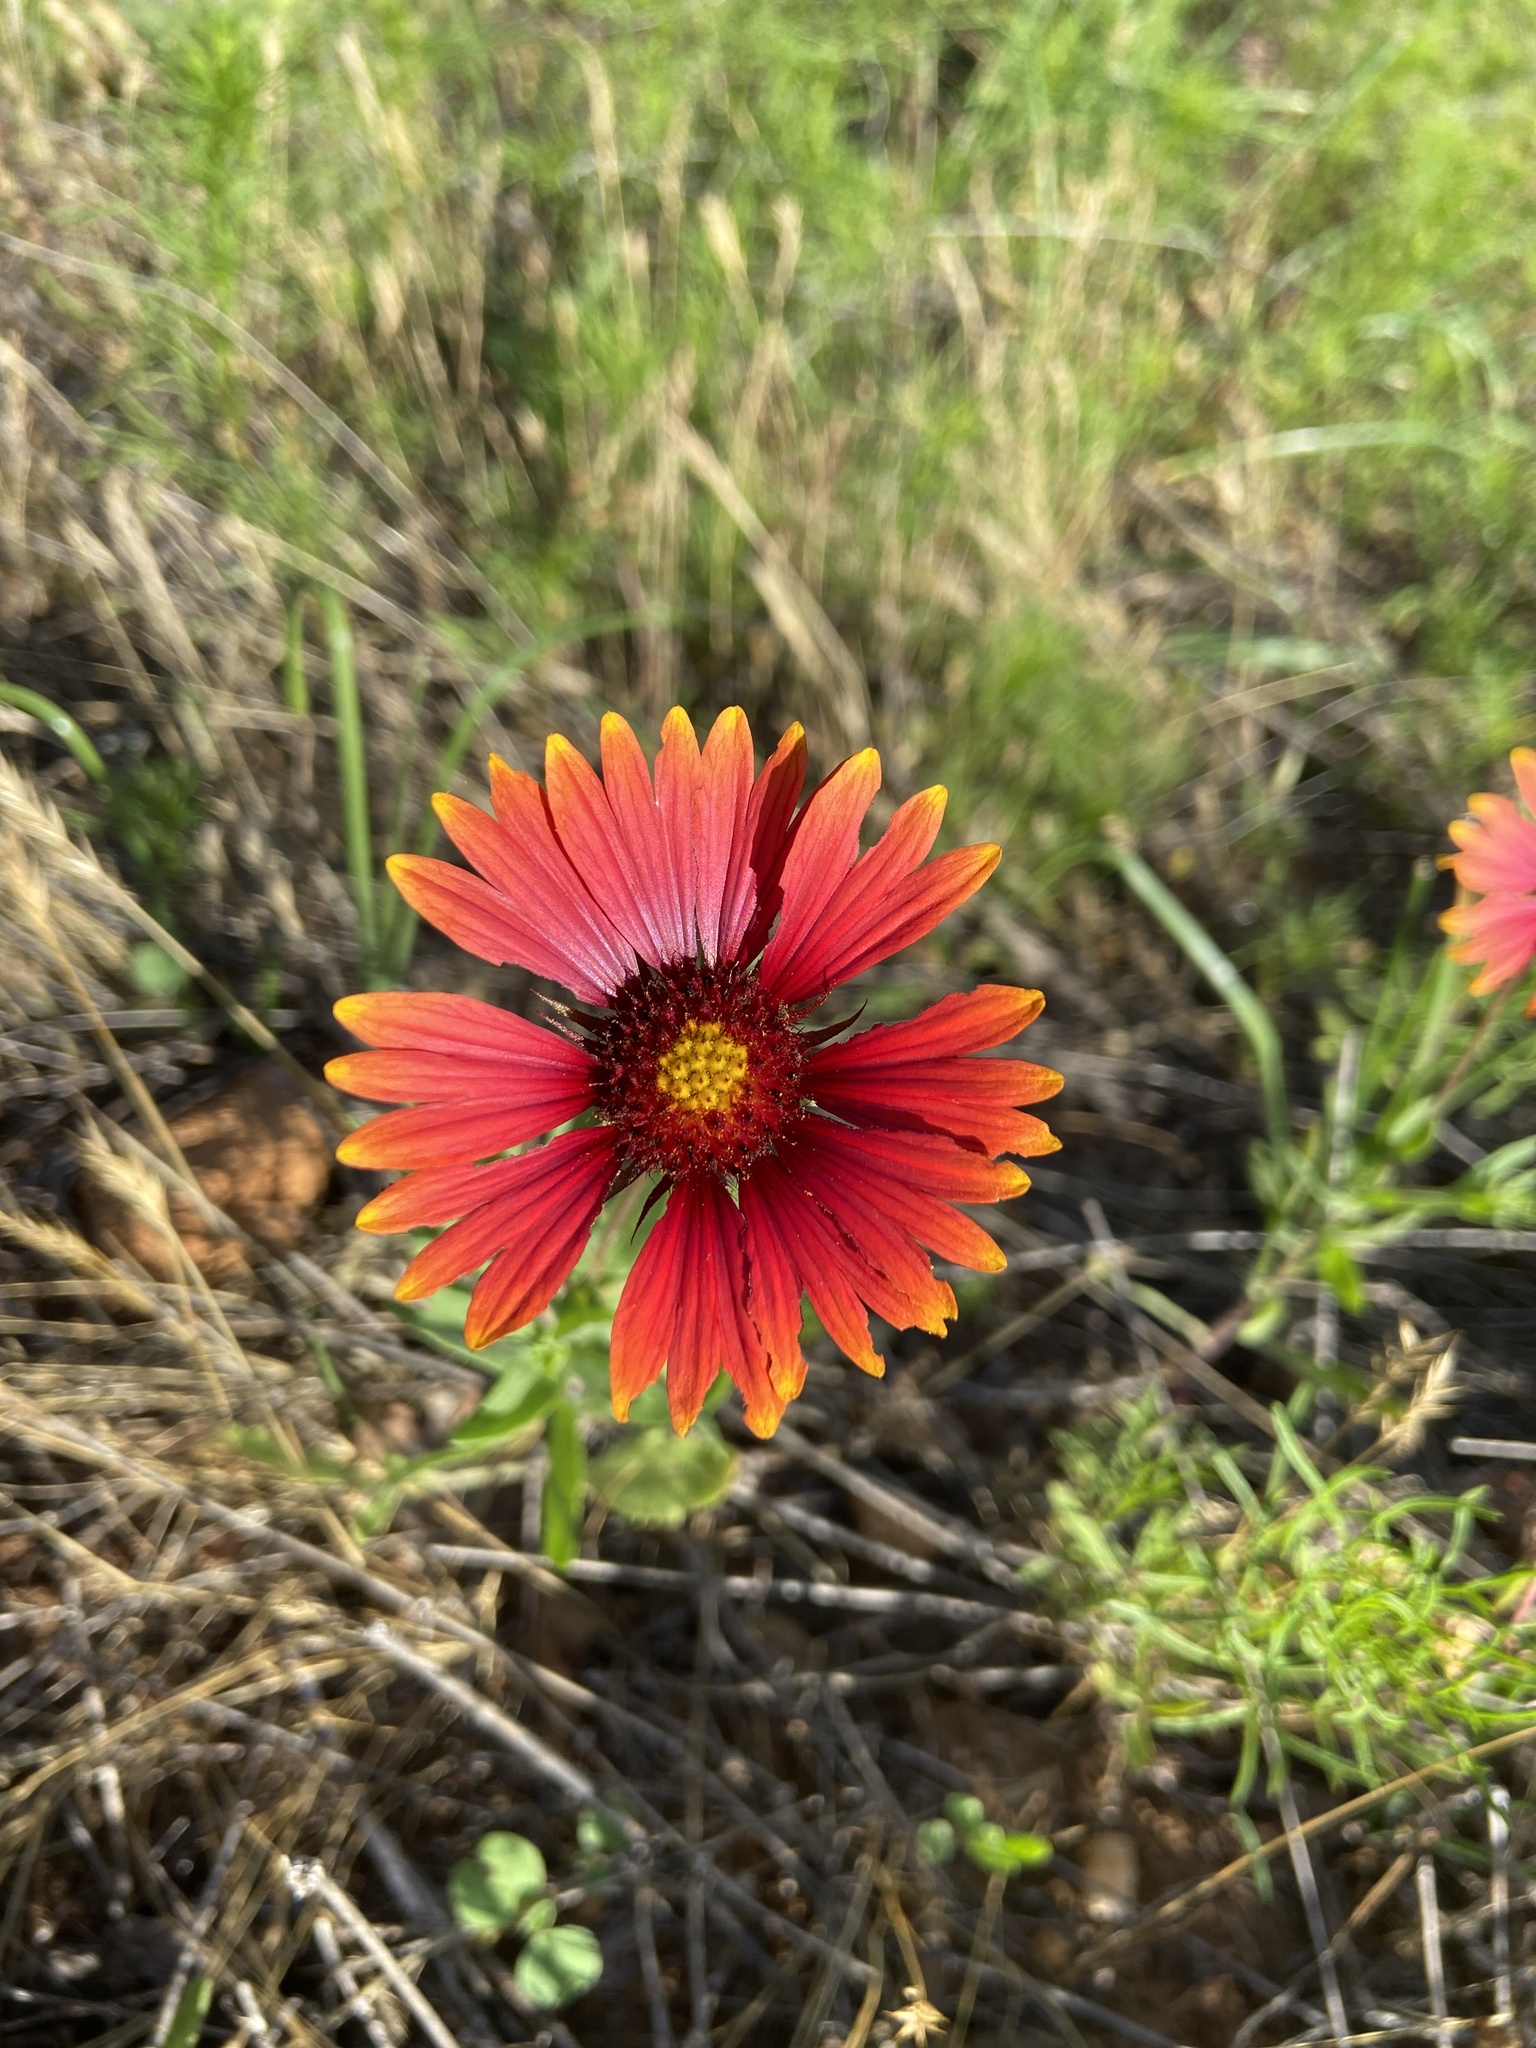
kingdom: Plantae
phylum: Tracheophyta
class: Magnoliopsida
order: Asterales
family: Asteraceae
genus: Gaillardia
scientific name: Gaillardia pulchella
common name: Firewheel
